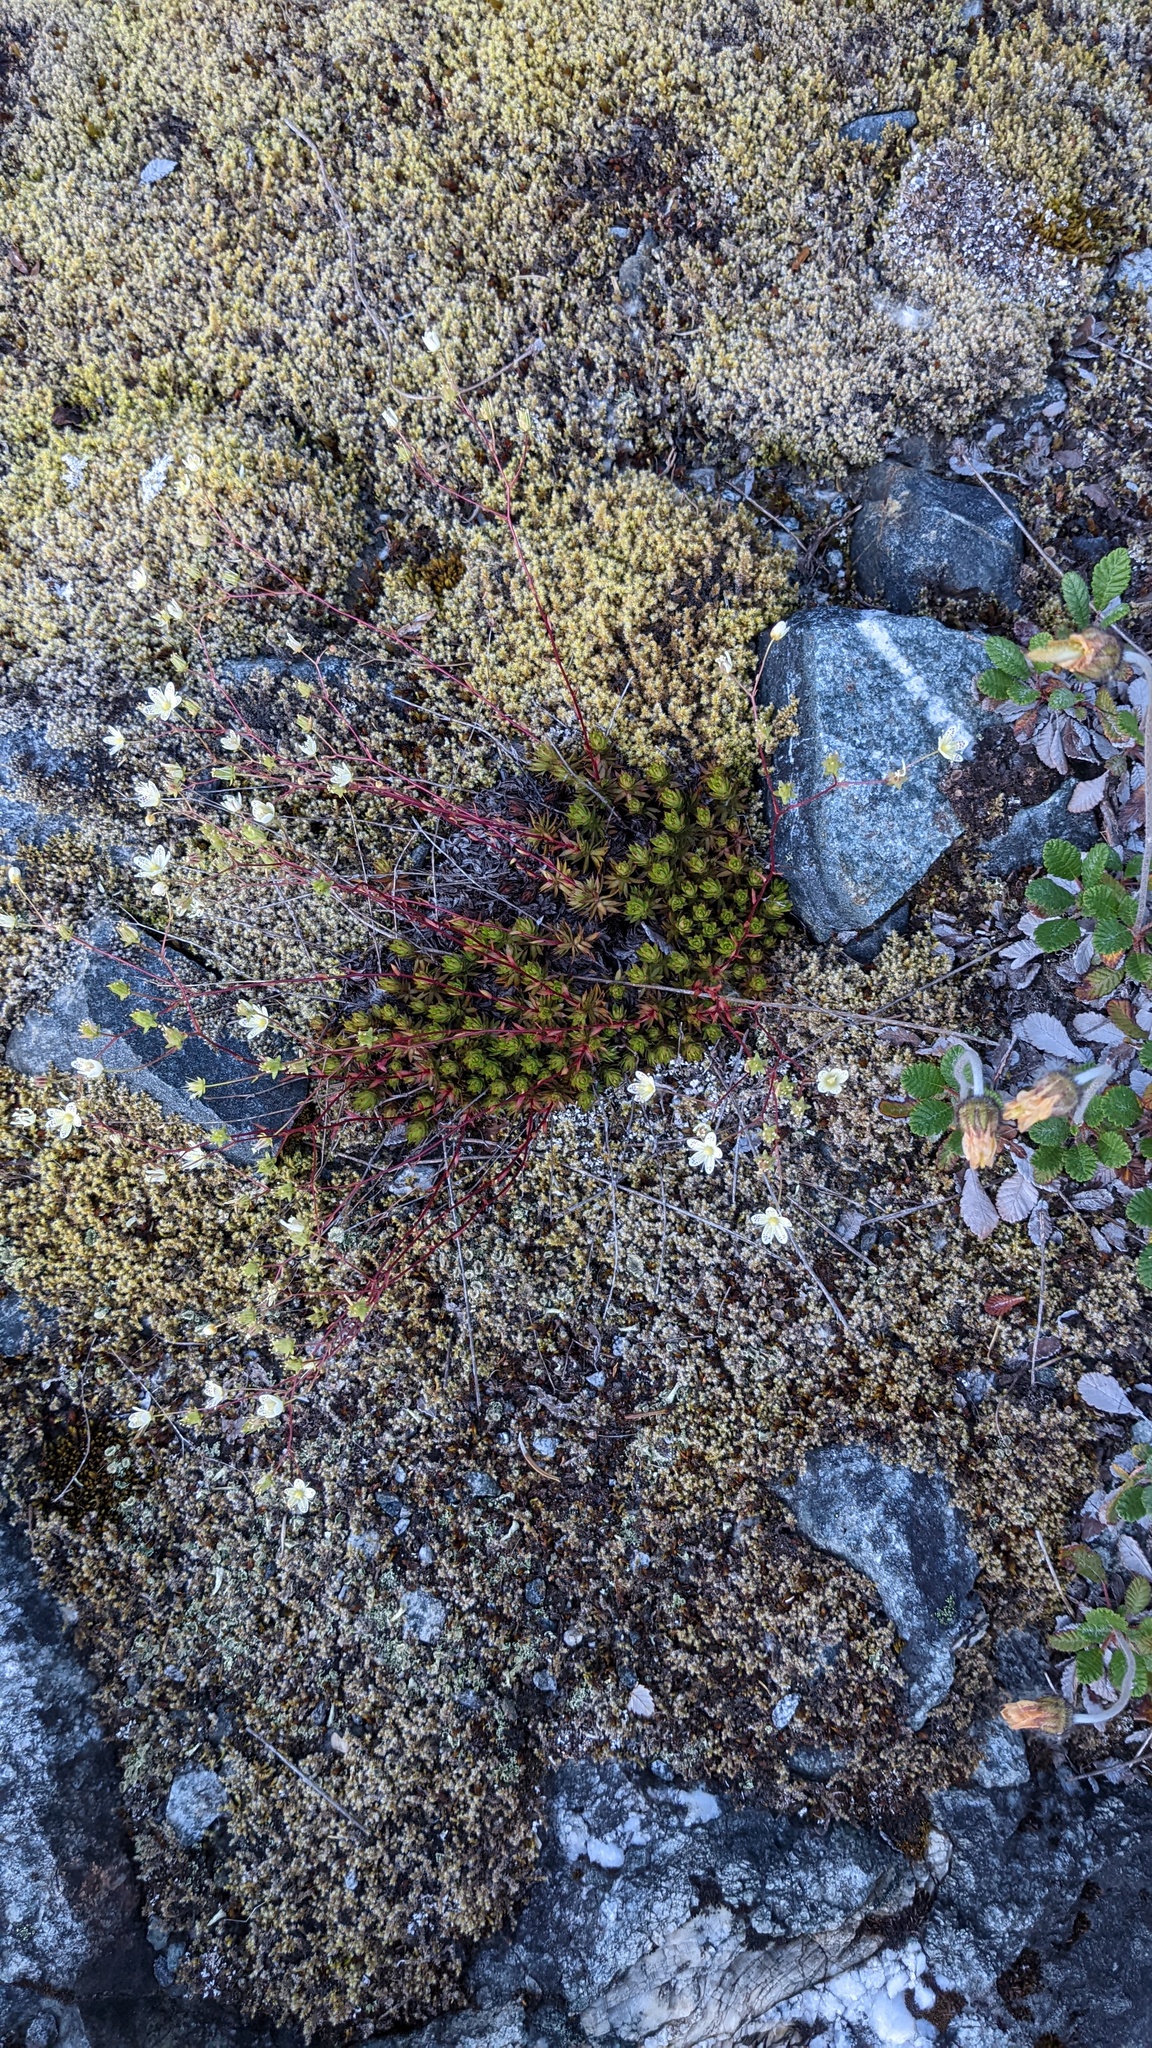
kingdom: Plantae
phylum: Tracheophyta
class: Magnoliopsida
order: Saxifragales
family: Saxifragaceae
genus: Saxifraga
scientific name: Saxifraga bronchialis
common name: Matted saxifrage
